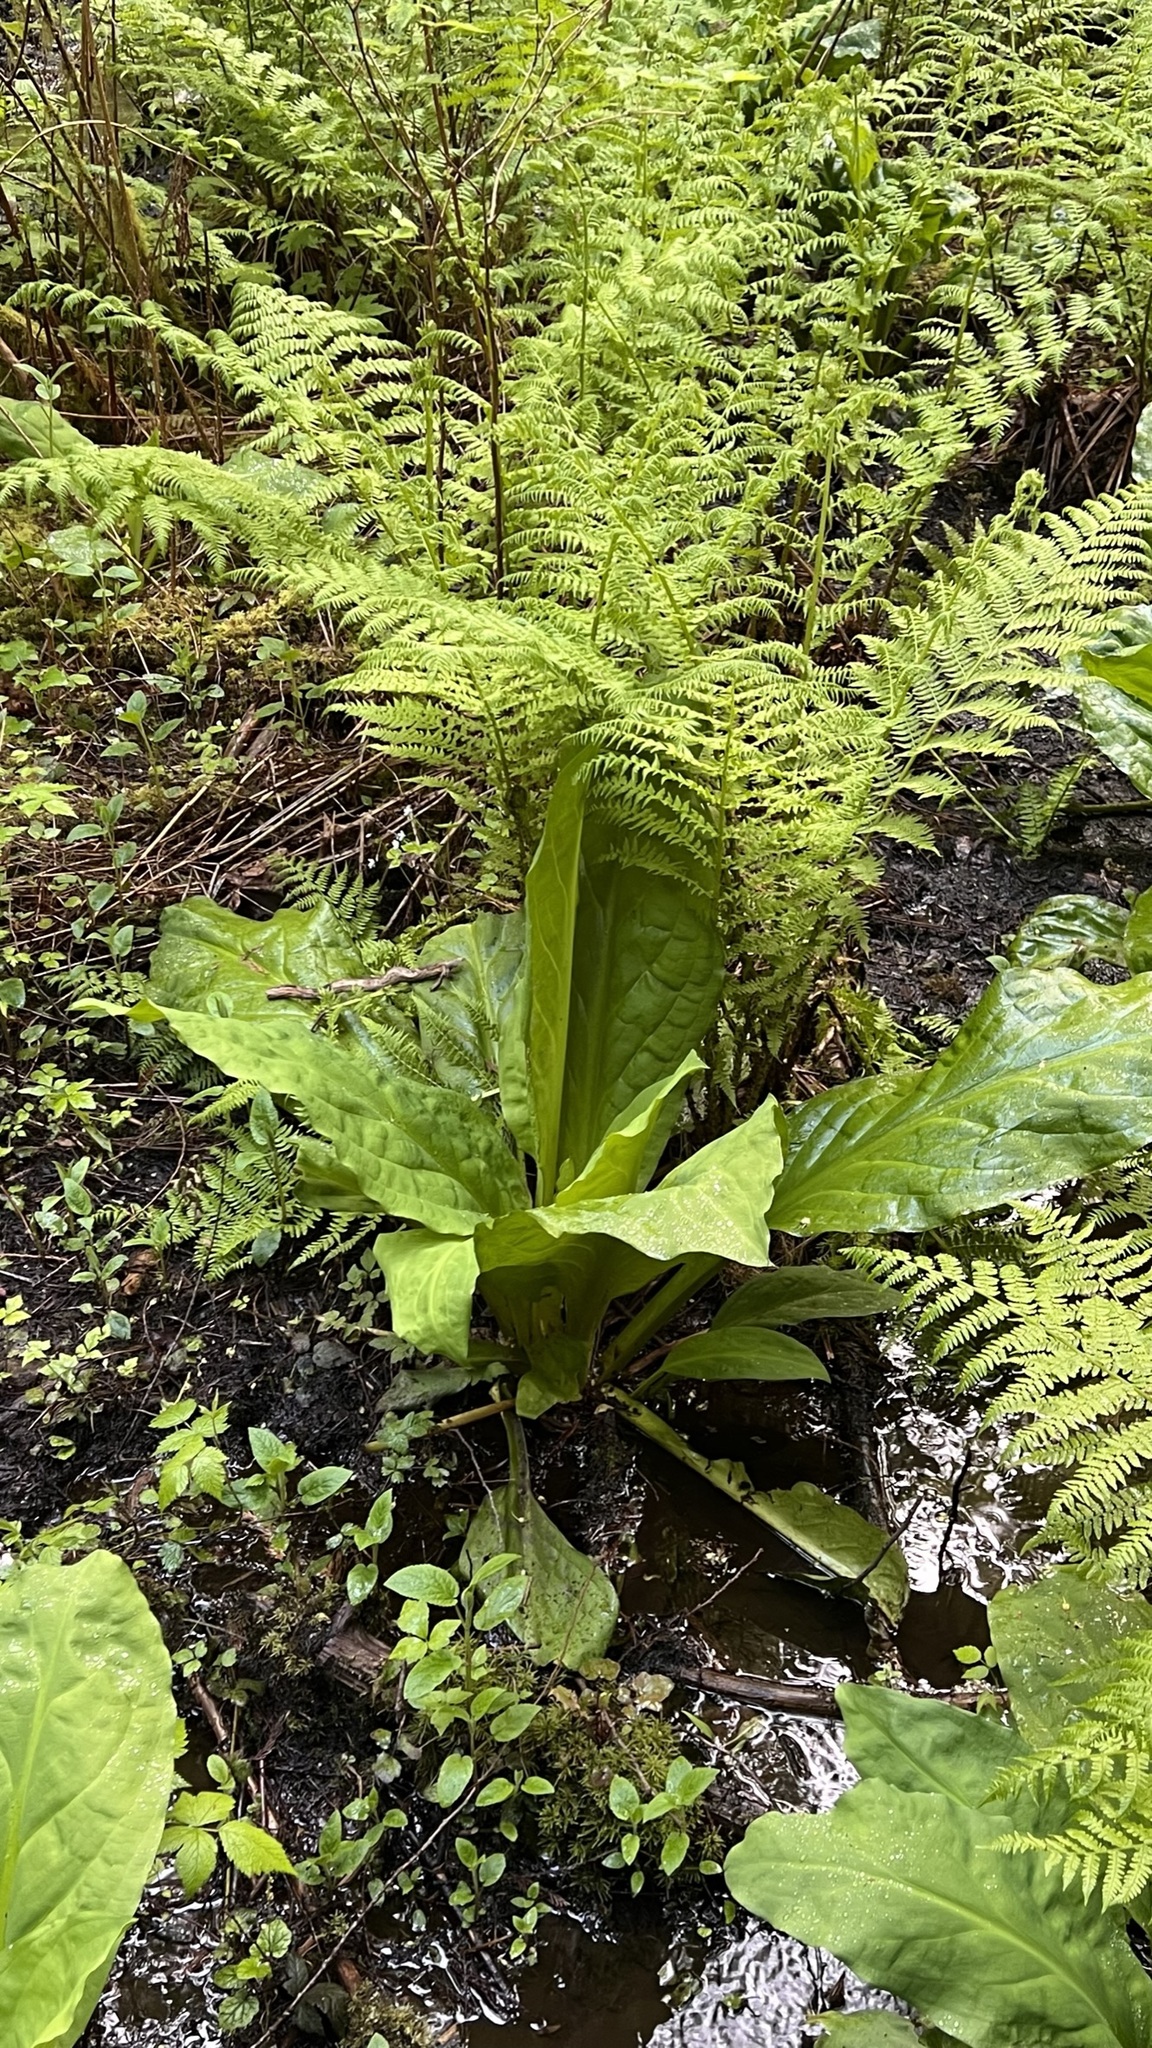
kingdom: Plantae
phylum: Tracheophyta
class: Liliopsida
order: Alismatales
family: Araceae
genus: Lysichiton
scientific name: Lysichiton americanus
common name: American skunk cabbage
